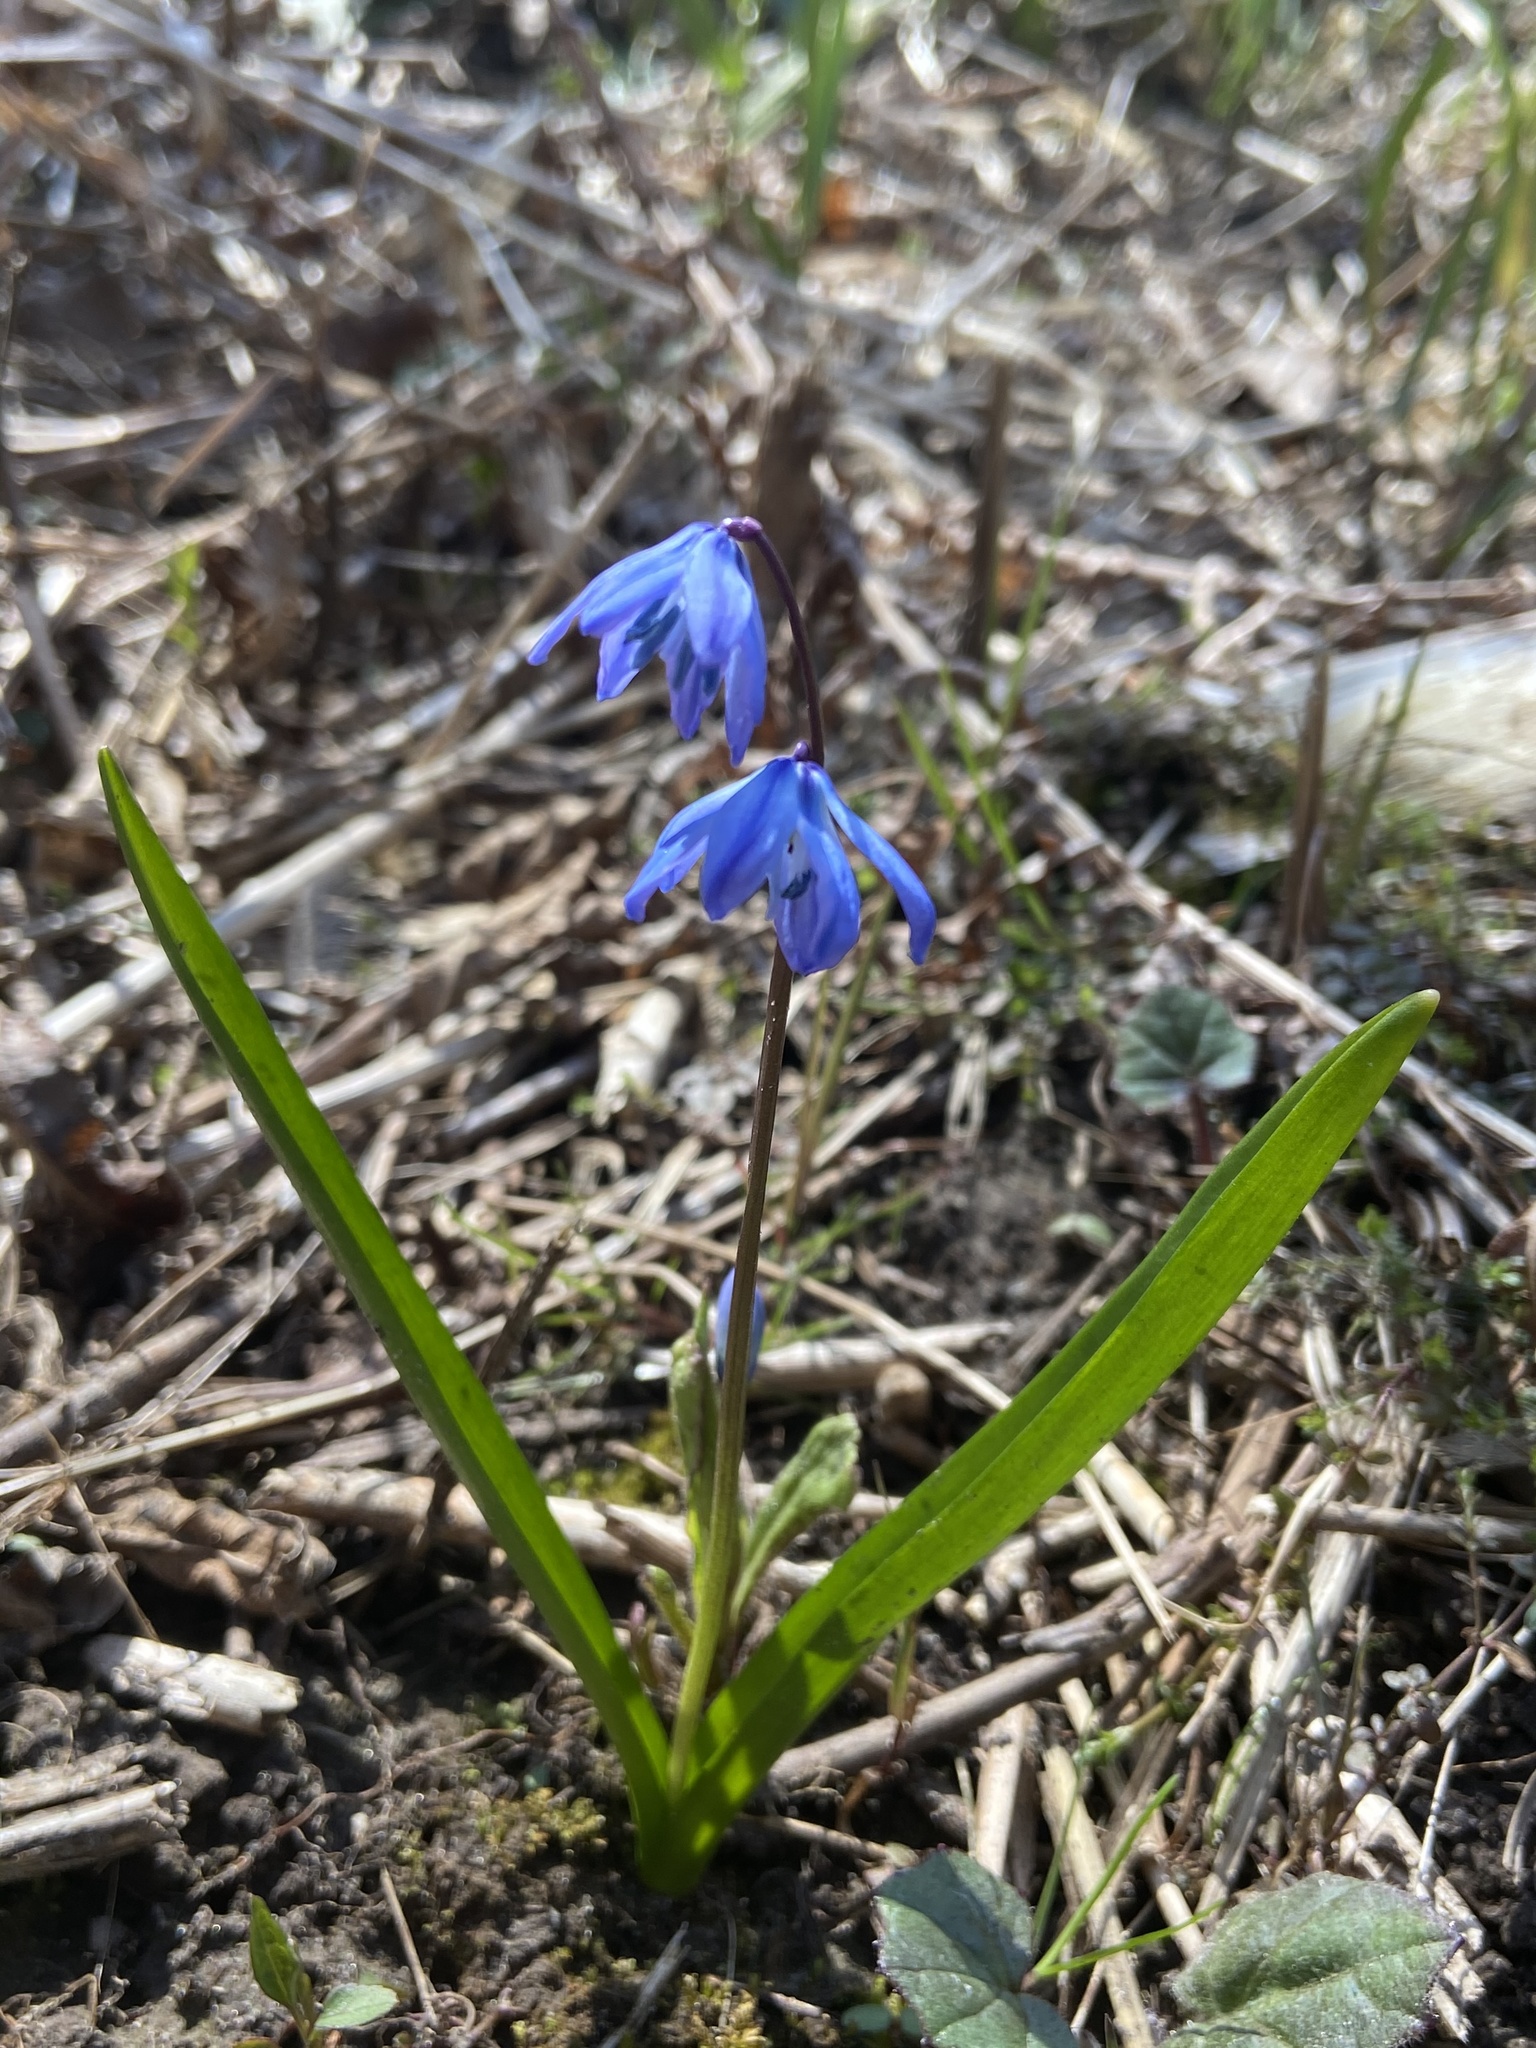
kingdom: Plantae
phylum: Tracheophyta
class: Liliopsida
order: Asparagales
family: Asparagaceae
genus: Scilla
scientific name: Scilla siberica
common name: Siberian squill
